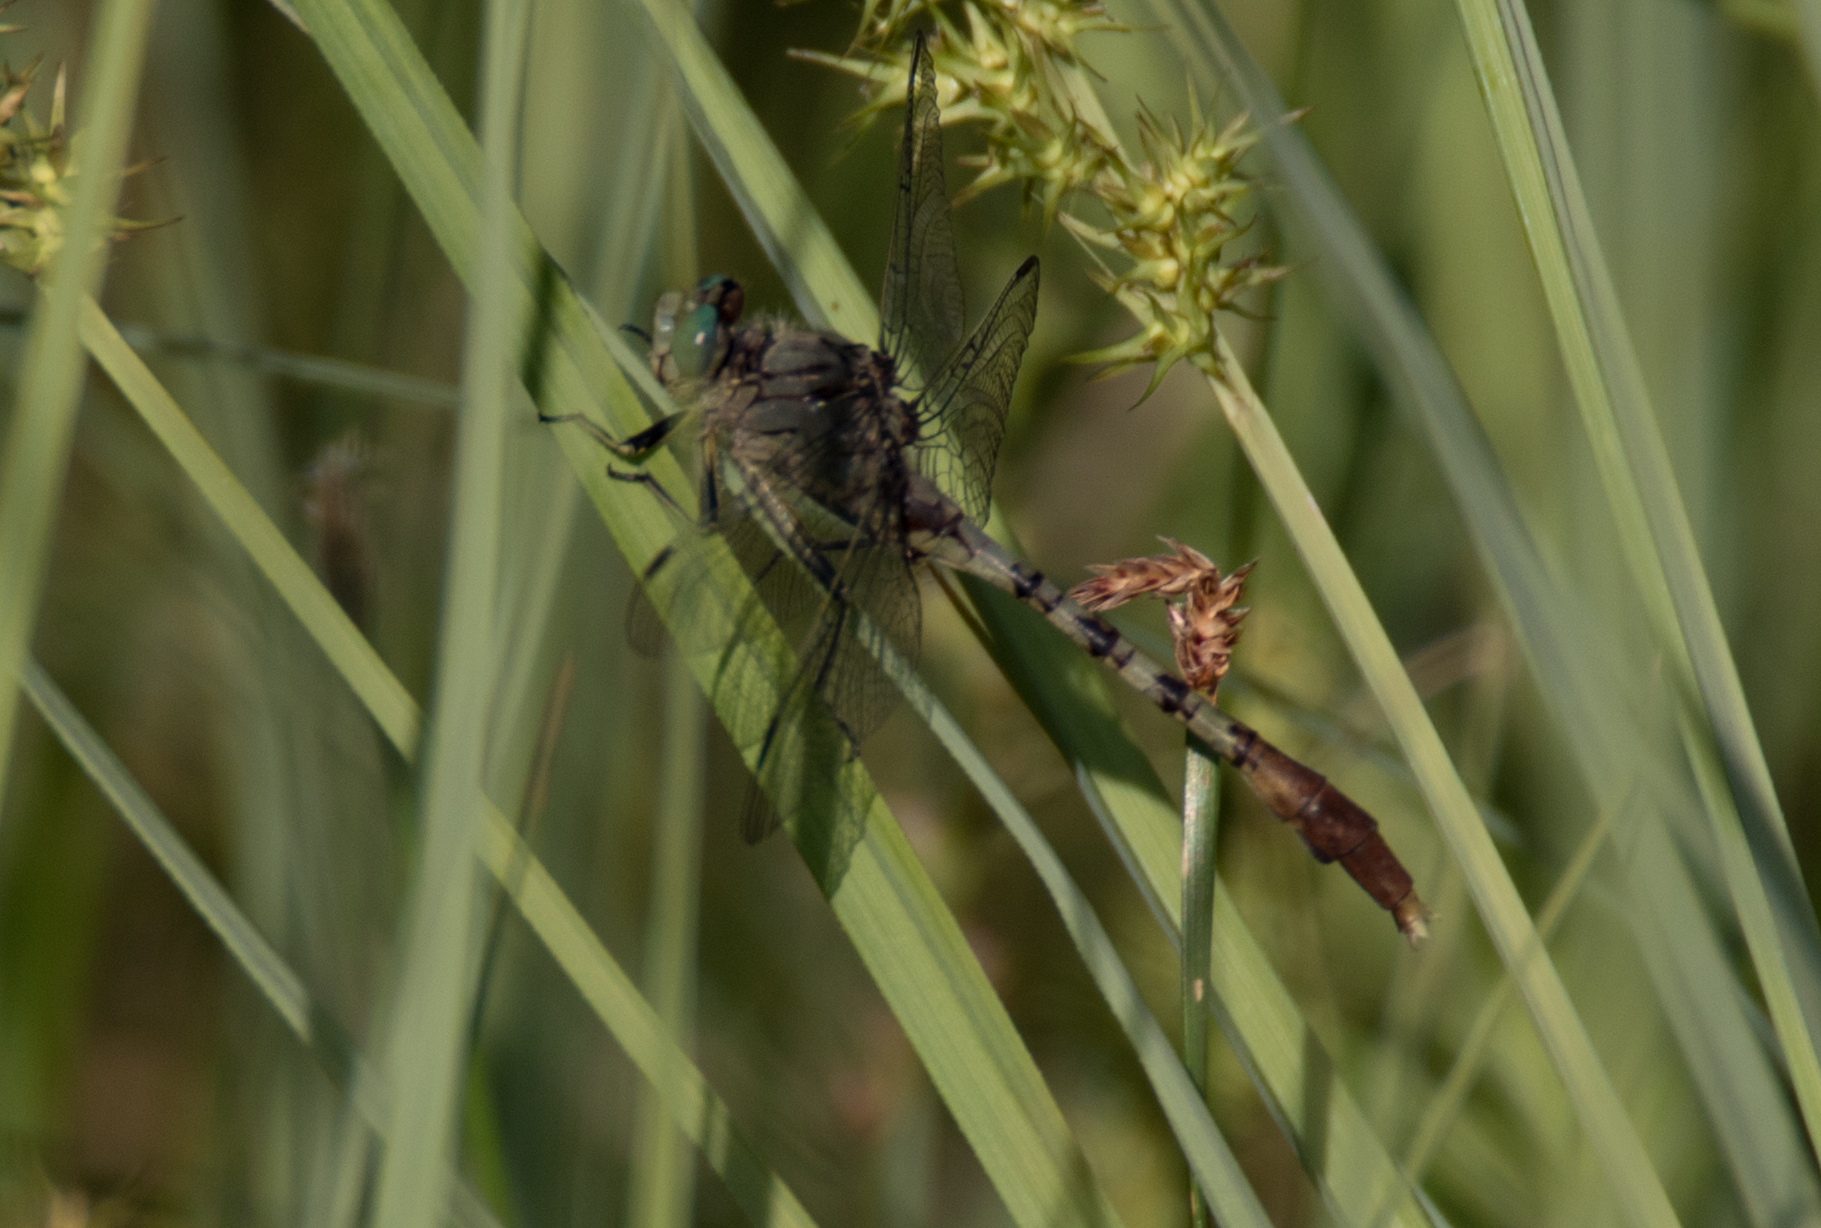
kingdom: Animalia
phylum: Arthropoda
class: Insecta
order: Odonata
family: Gomphidae
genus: Arigomphus
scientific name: Arigomphus submedianus
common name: Jade clubtail
